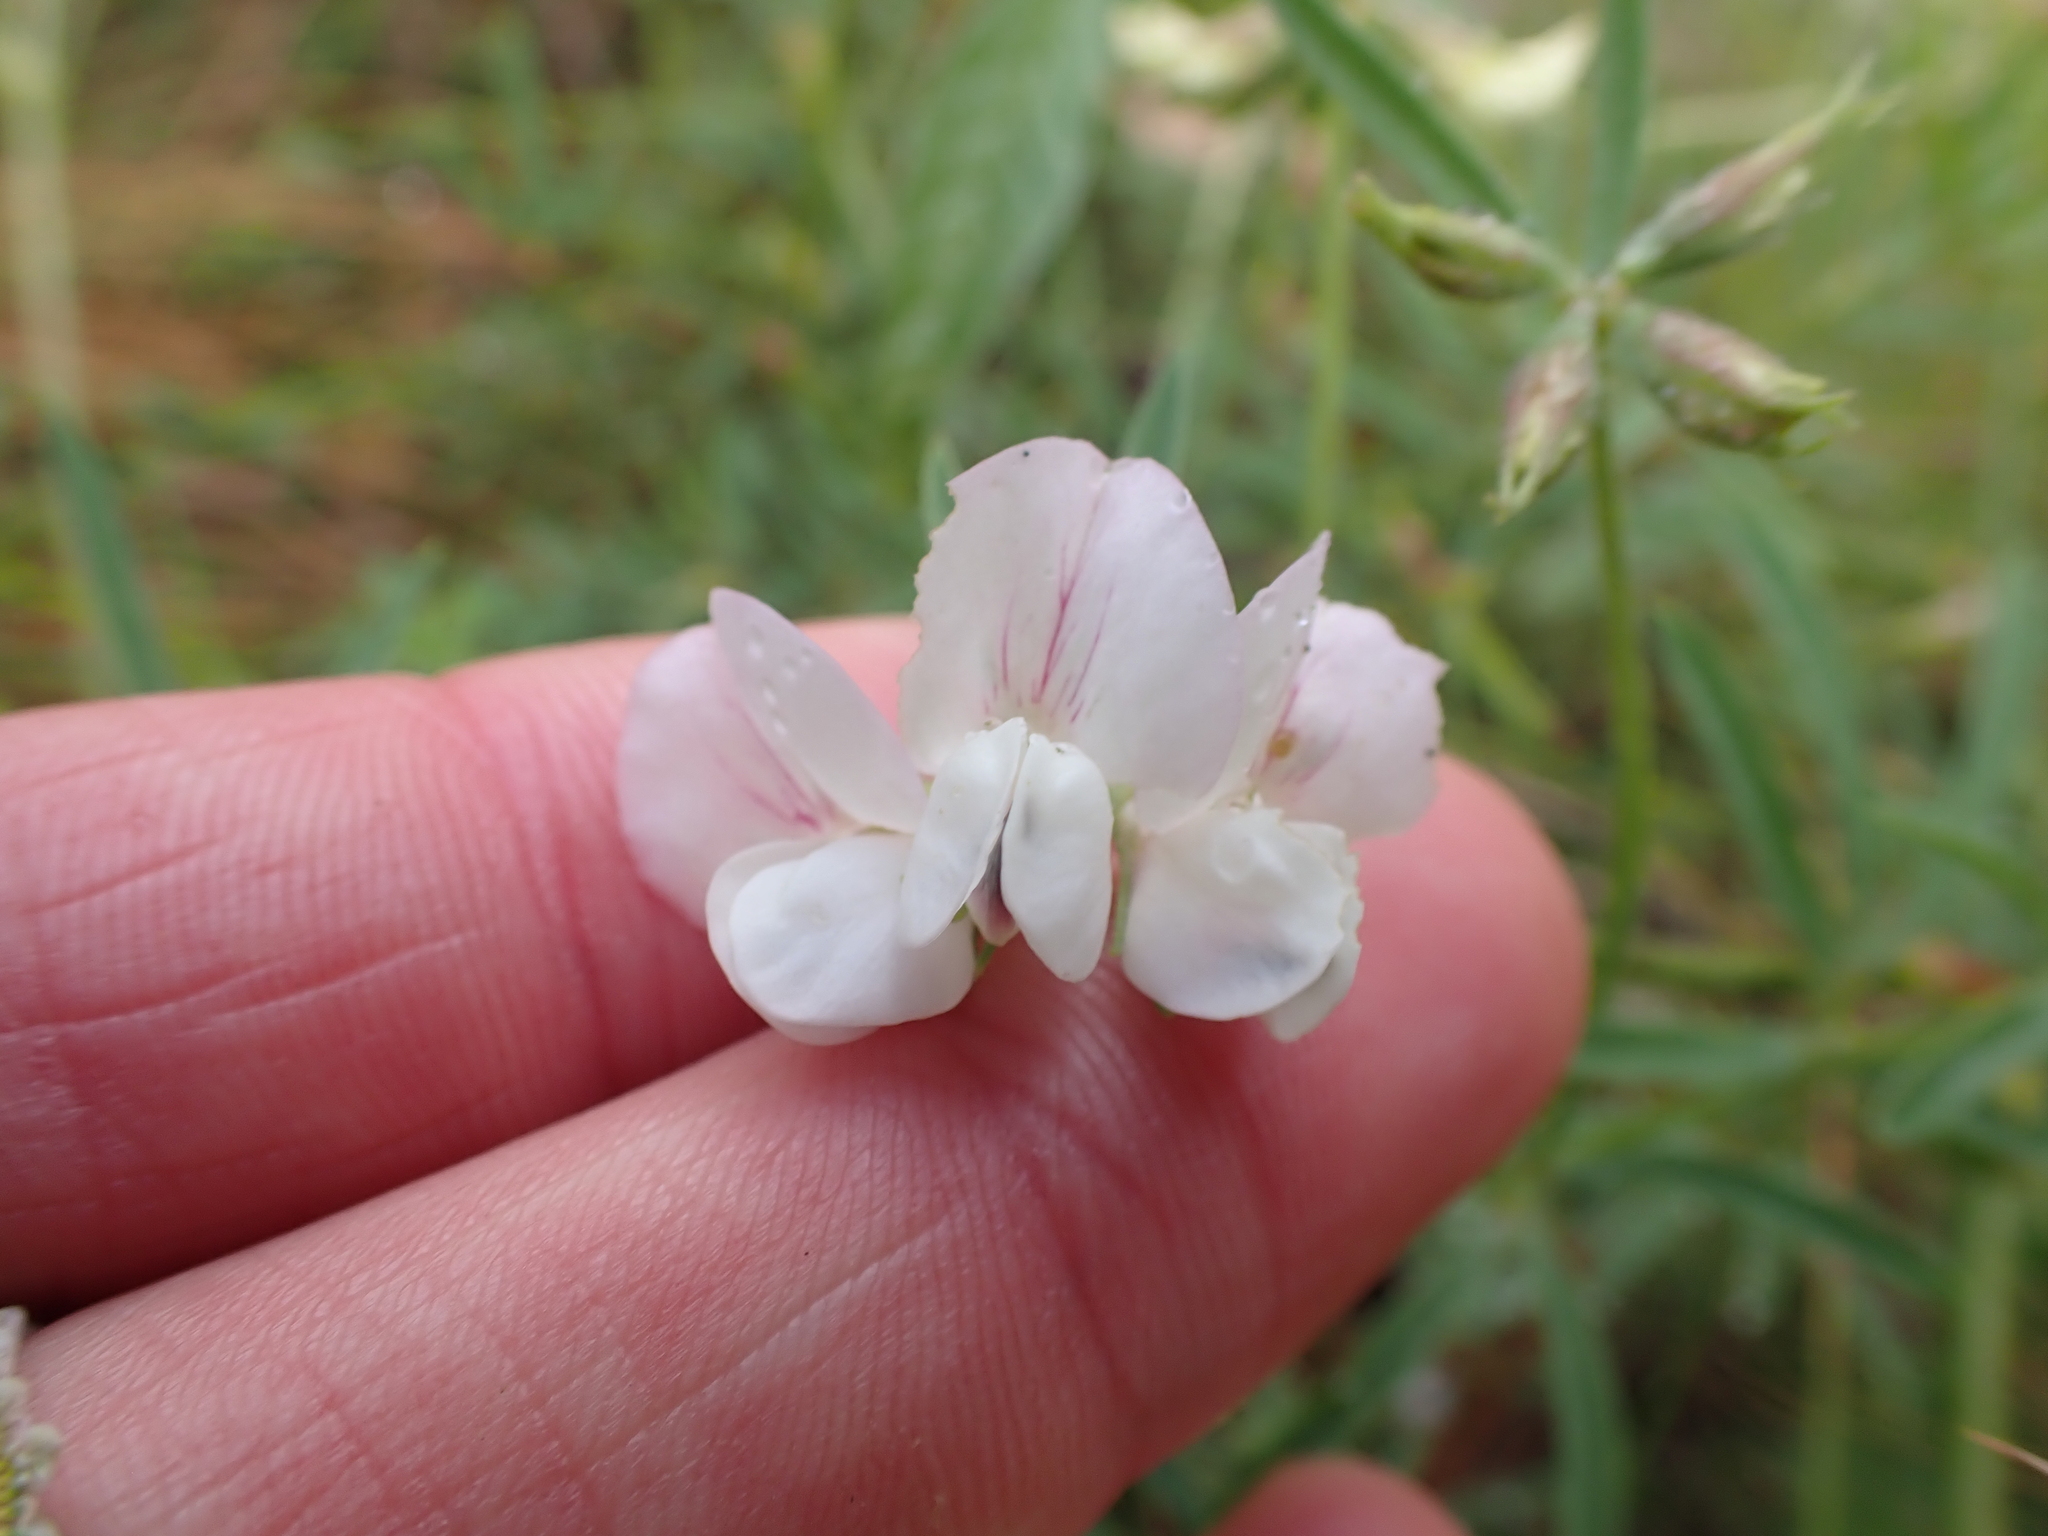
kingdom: Plantae
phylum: Tracheophyta
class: Magnoliopsida
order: Fabales
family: Fabaceae
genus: Lotus
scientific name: Lotus australis
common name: Australian trefoil
